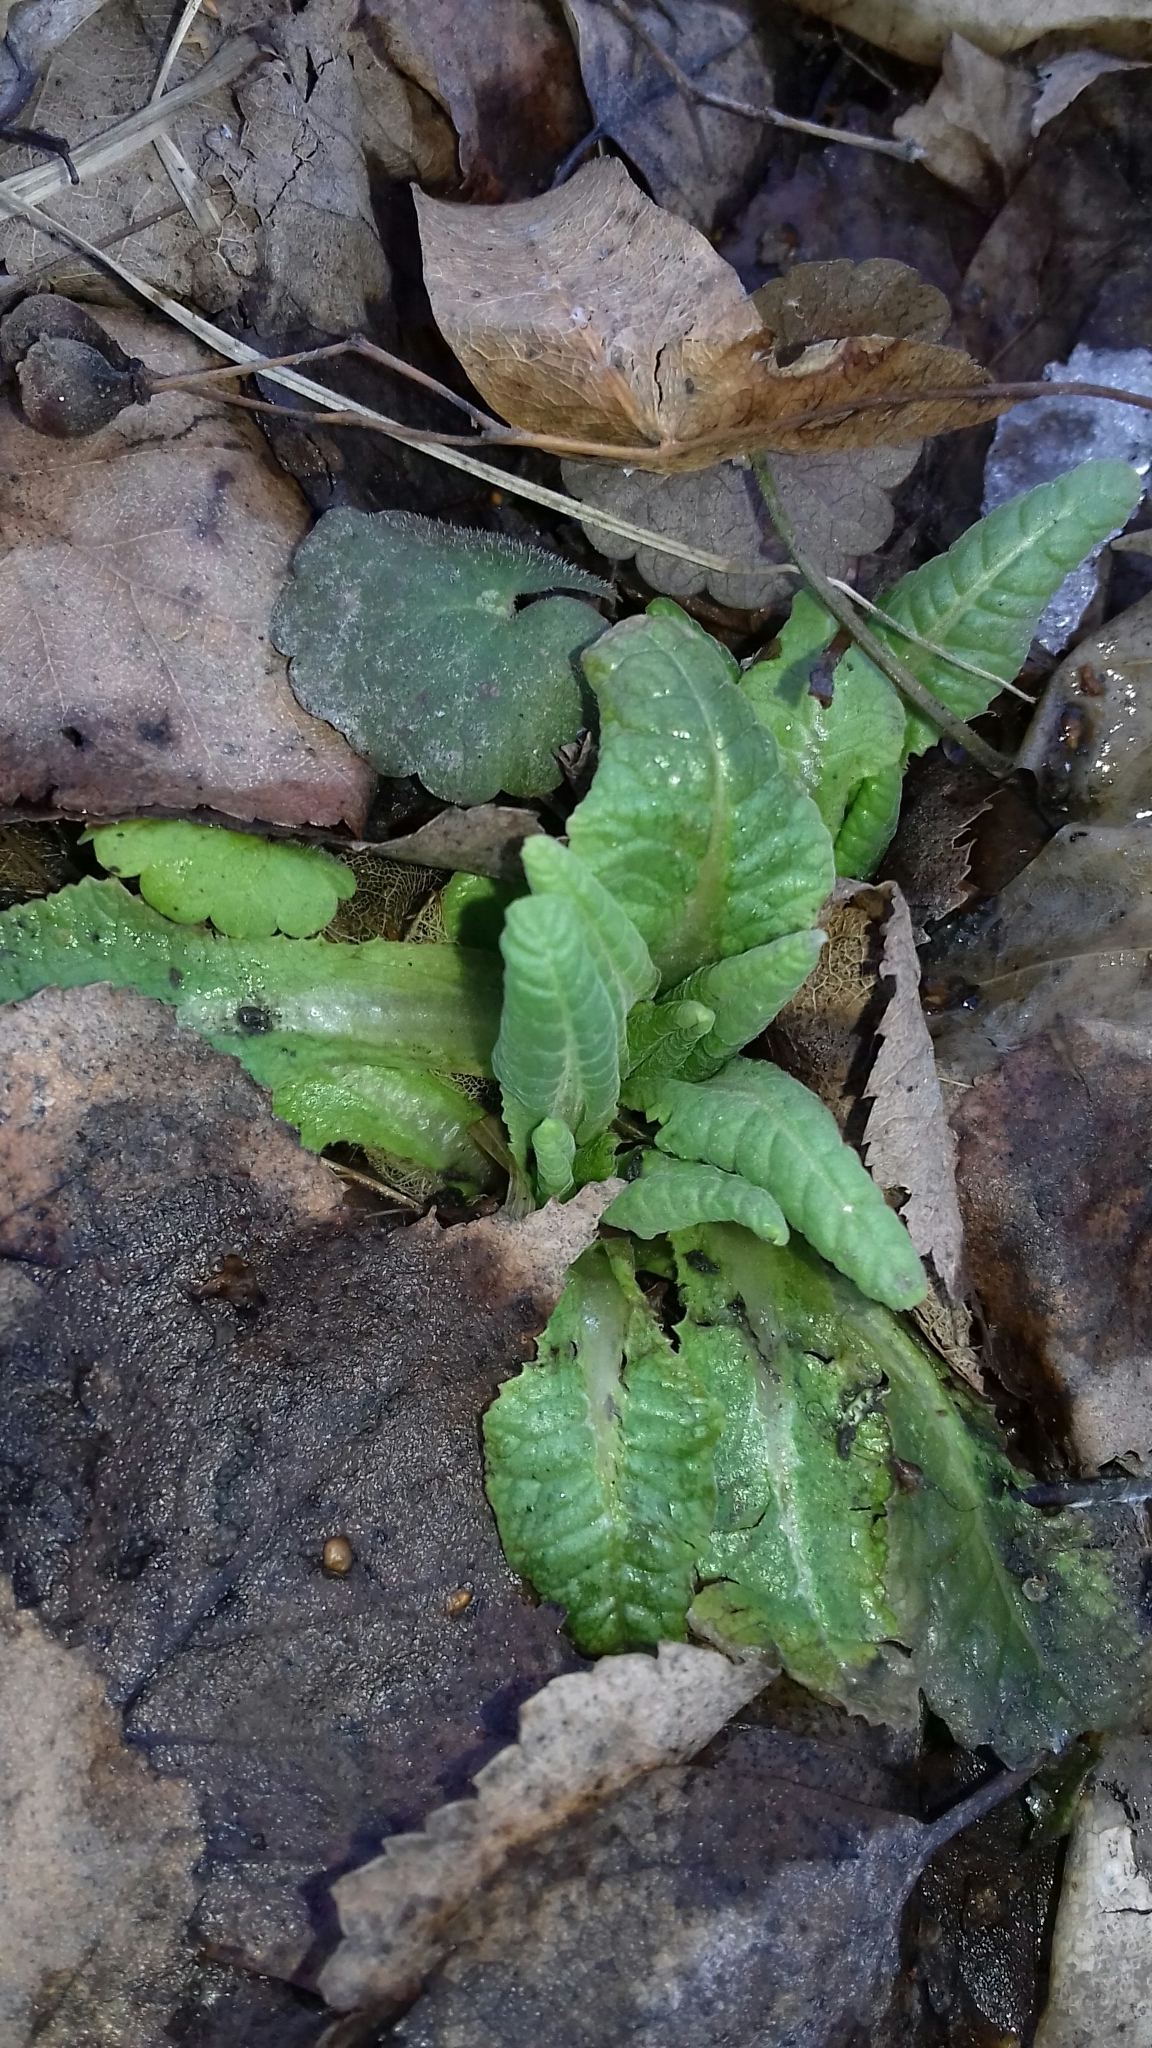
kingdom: Plantae
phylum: Tracheophyta
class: Magnoliopsida
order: Ericales
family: Primulaceae
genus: Primula
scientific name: Primula veris
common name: Cowslip
